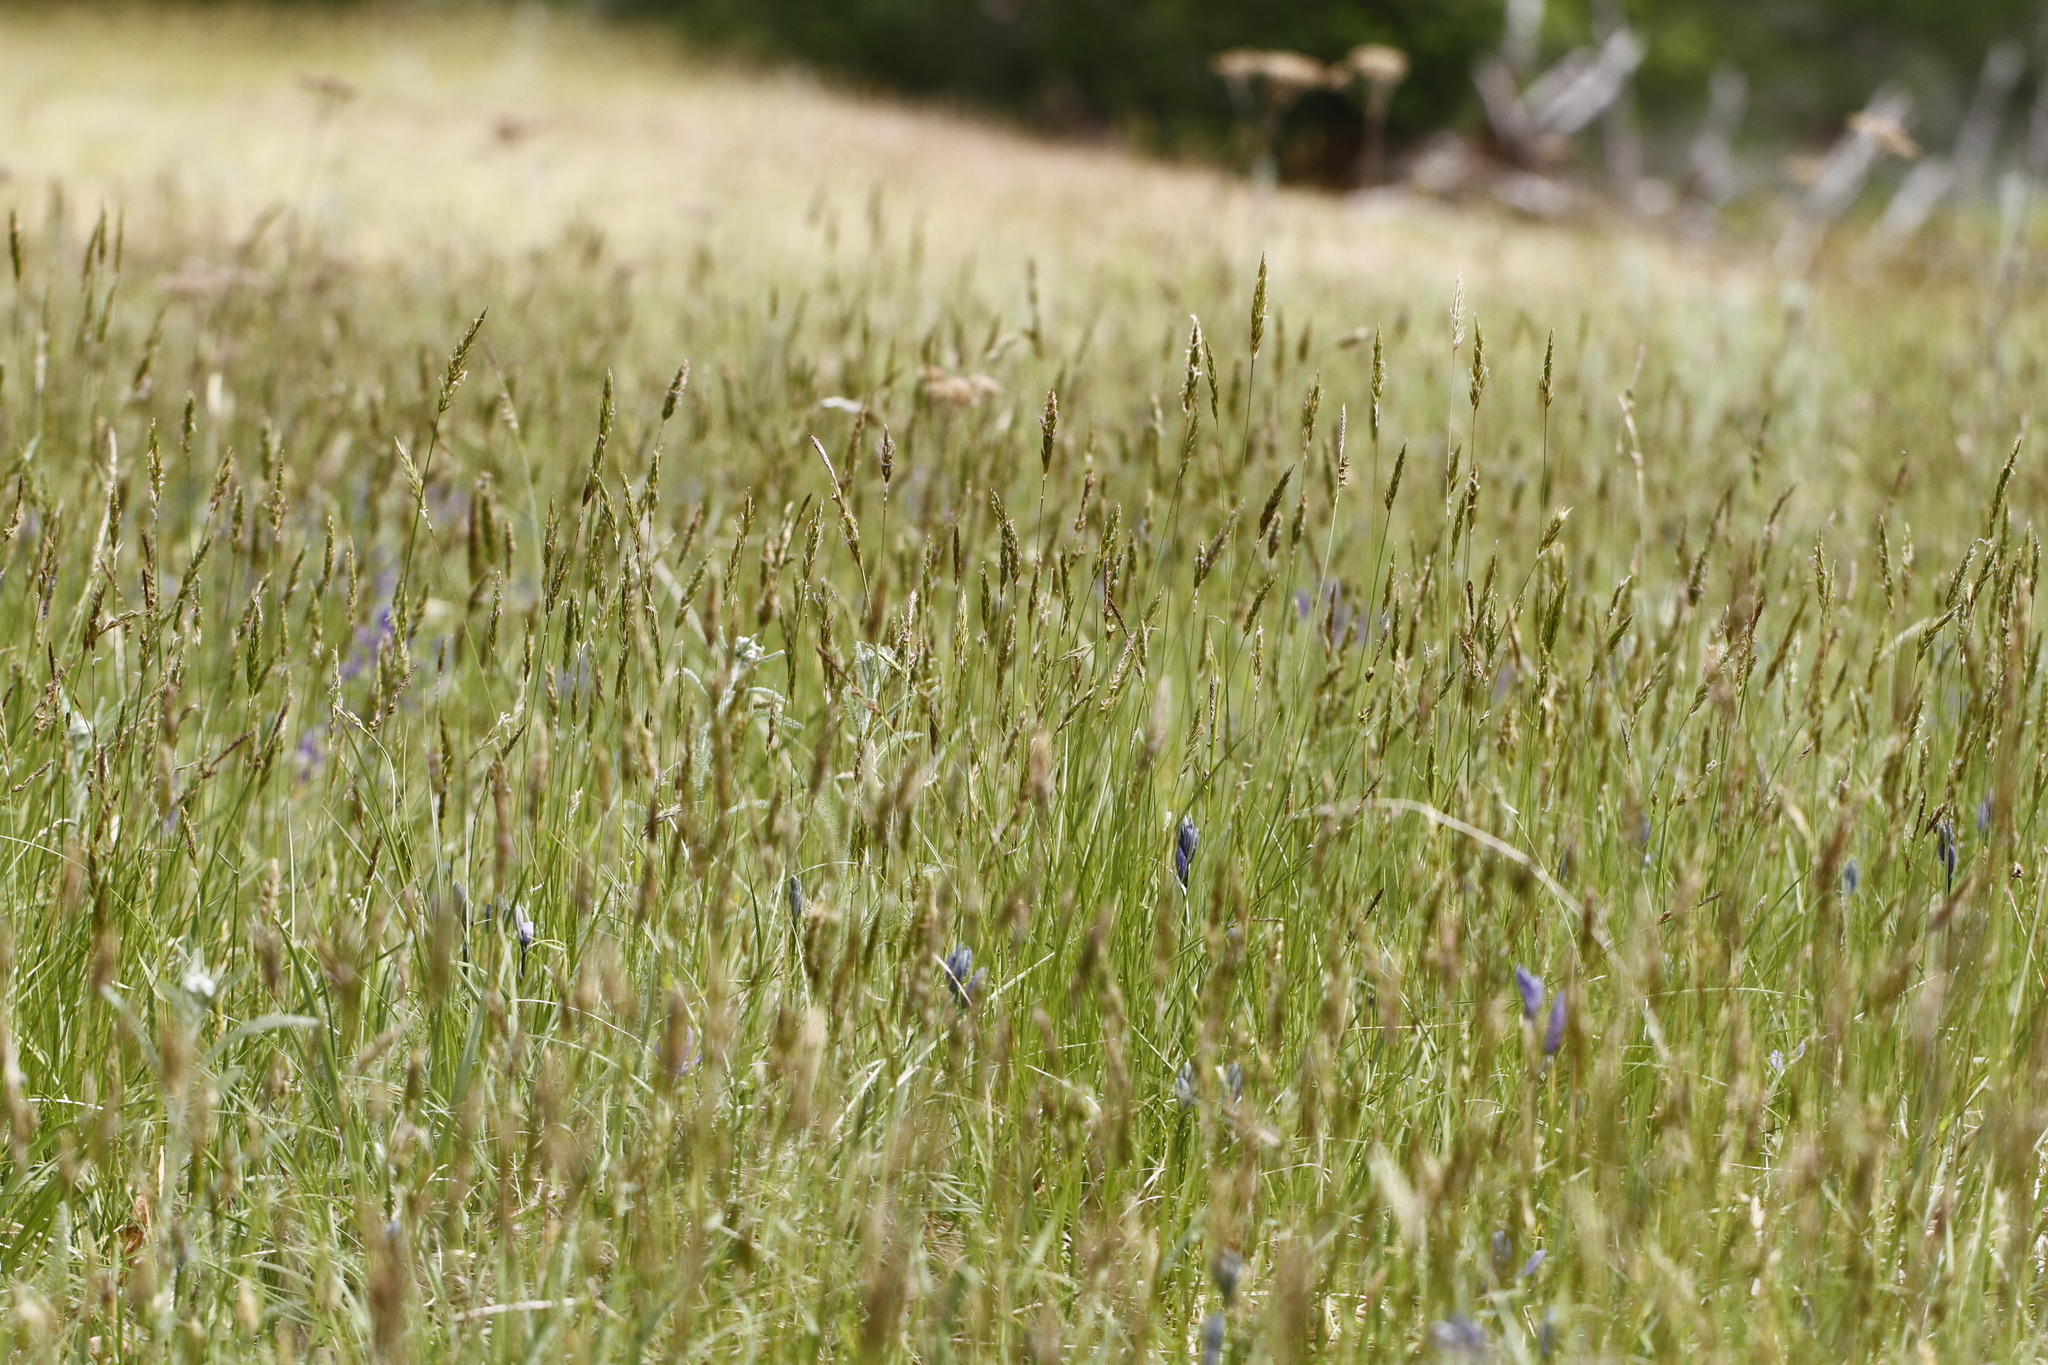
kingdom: Plantae
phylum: Tracheophyta
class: Liliopsida
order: Poales
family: Poaceae
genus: Anthoxanthum
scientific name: Anthoxanthum odoratum
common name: Sweet vernalgrass
